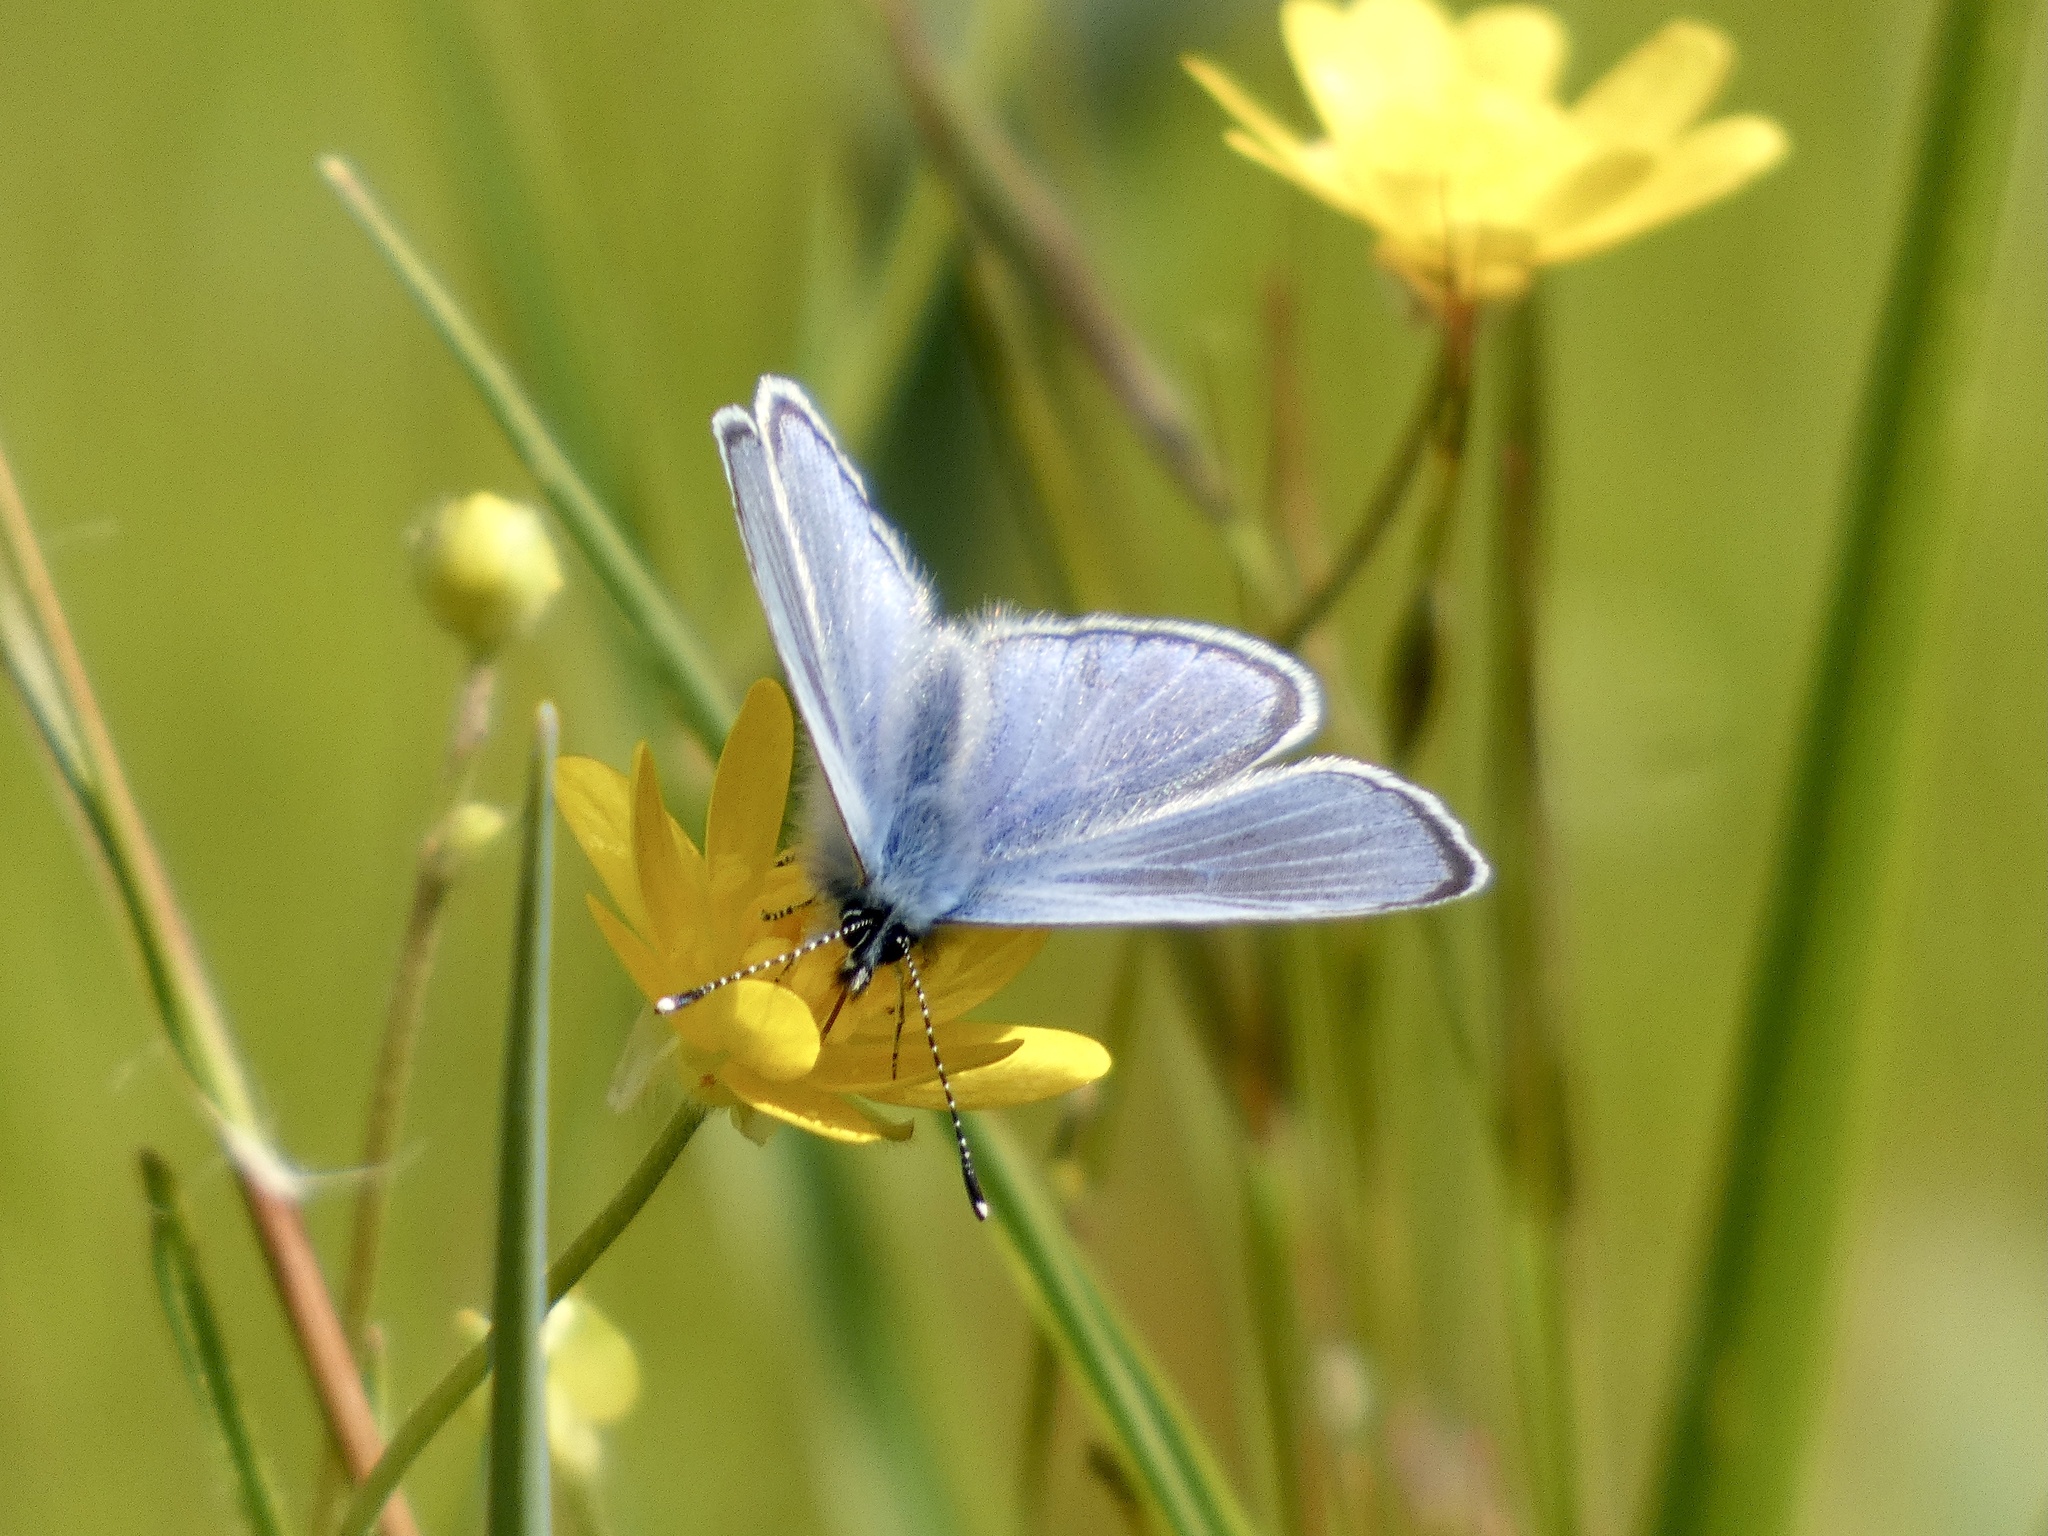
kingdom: Animalia
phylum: Arthropoda
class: Insecta
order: Lepidoptera
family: Lycaenidae
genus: Glaucopsyche
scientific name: Glaucopsyche lygdamus
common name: Silvery blue
